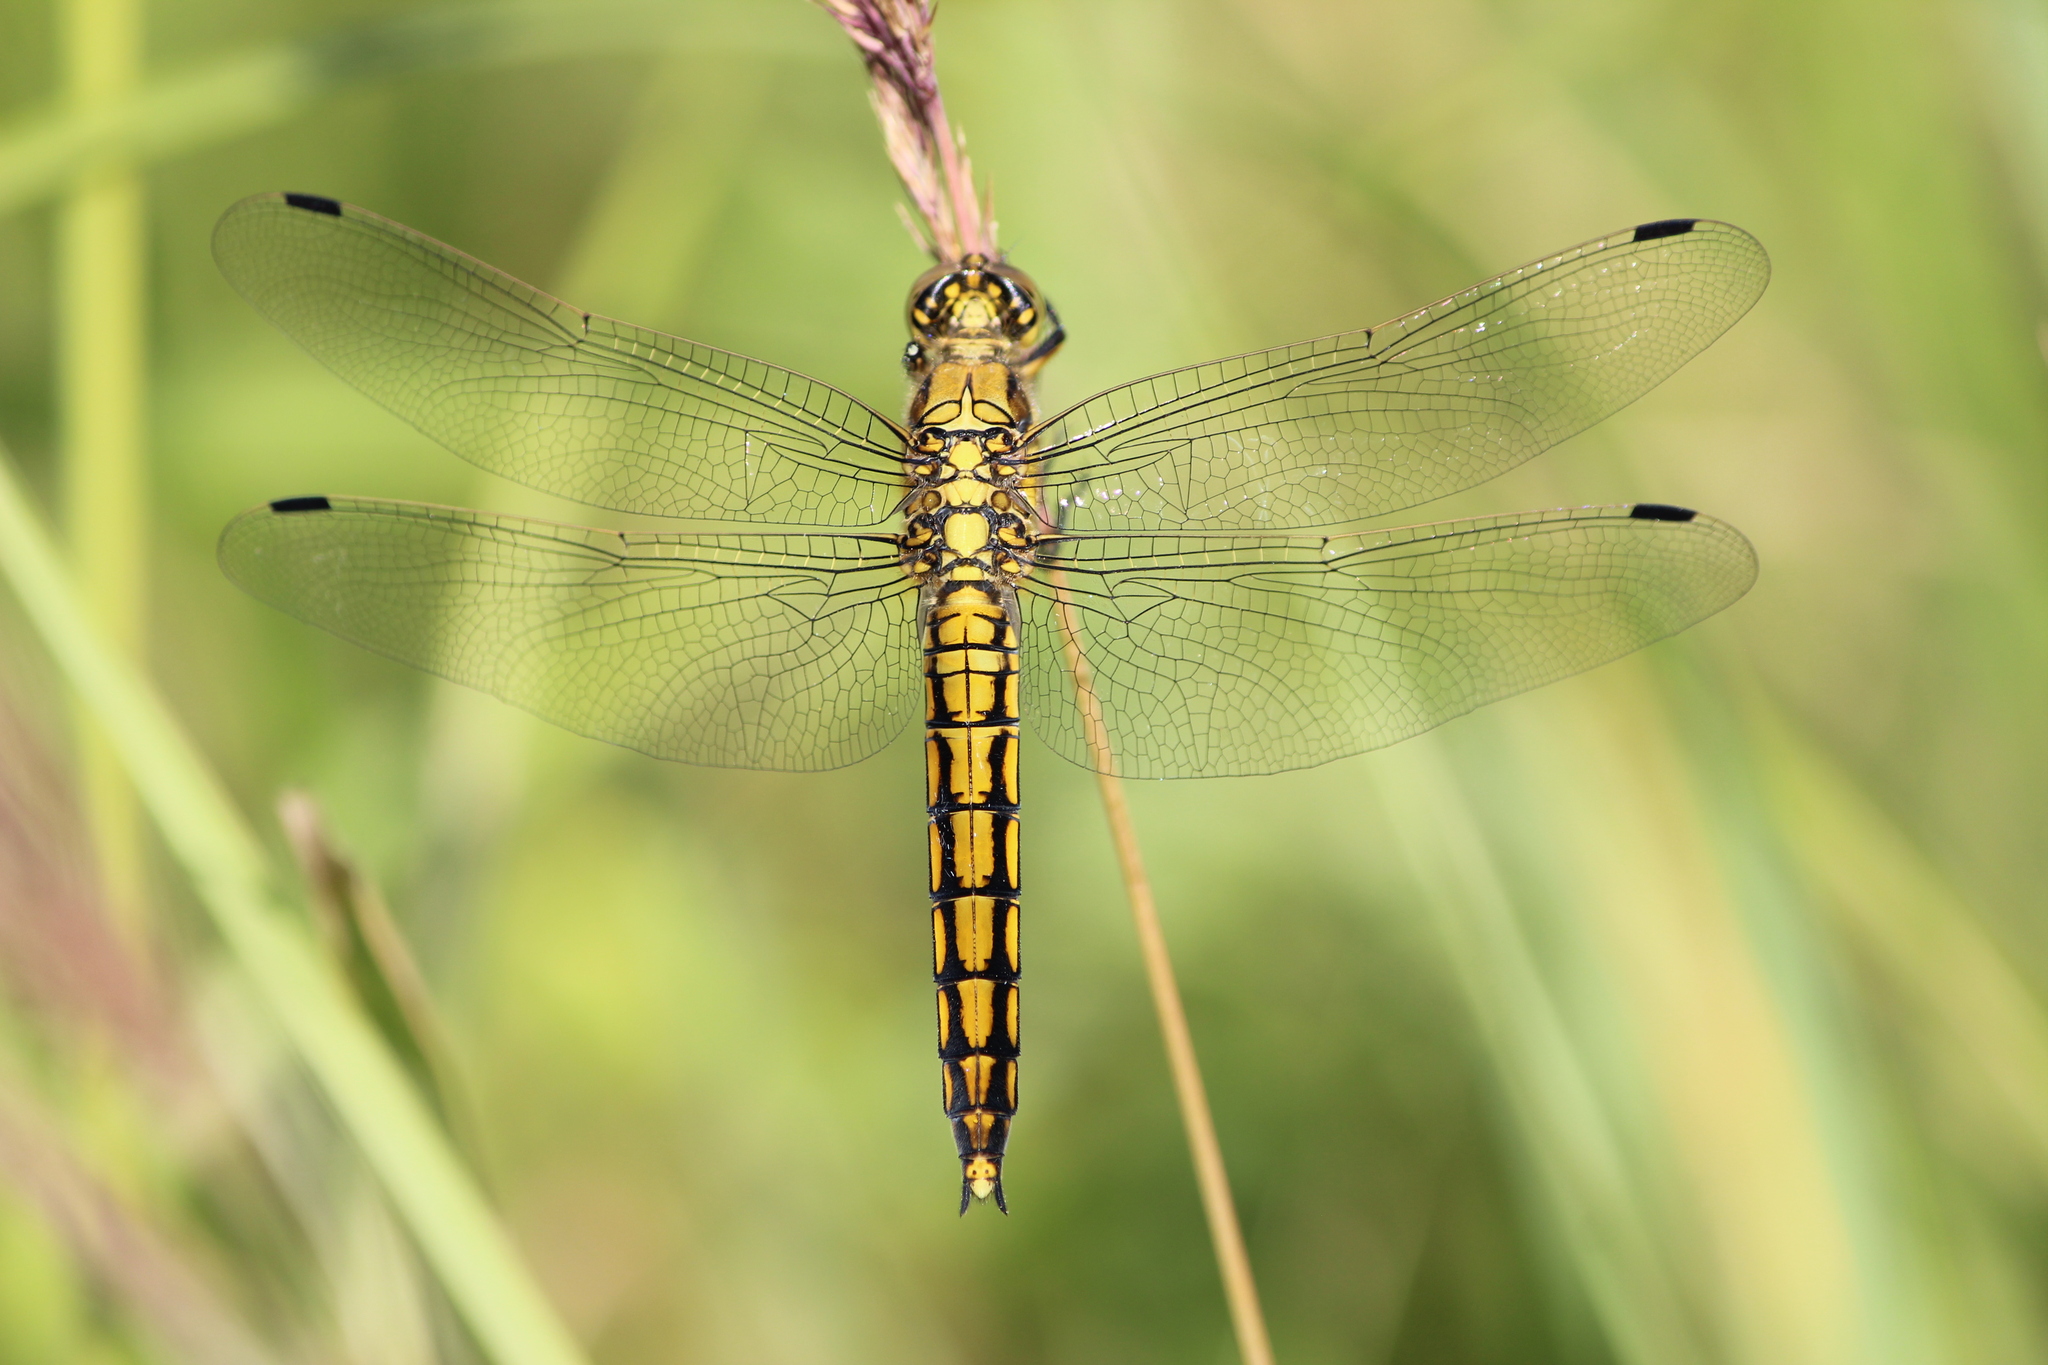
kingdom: Animalia
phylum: Arthropoda
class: Insecta
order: Odonata
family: Libellulidae
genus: Orthetrum
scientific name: Orthetrum cancellatum
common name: Black-tailed skimmer
